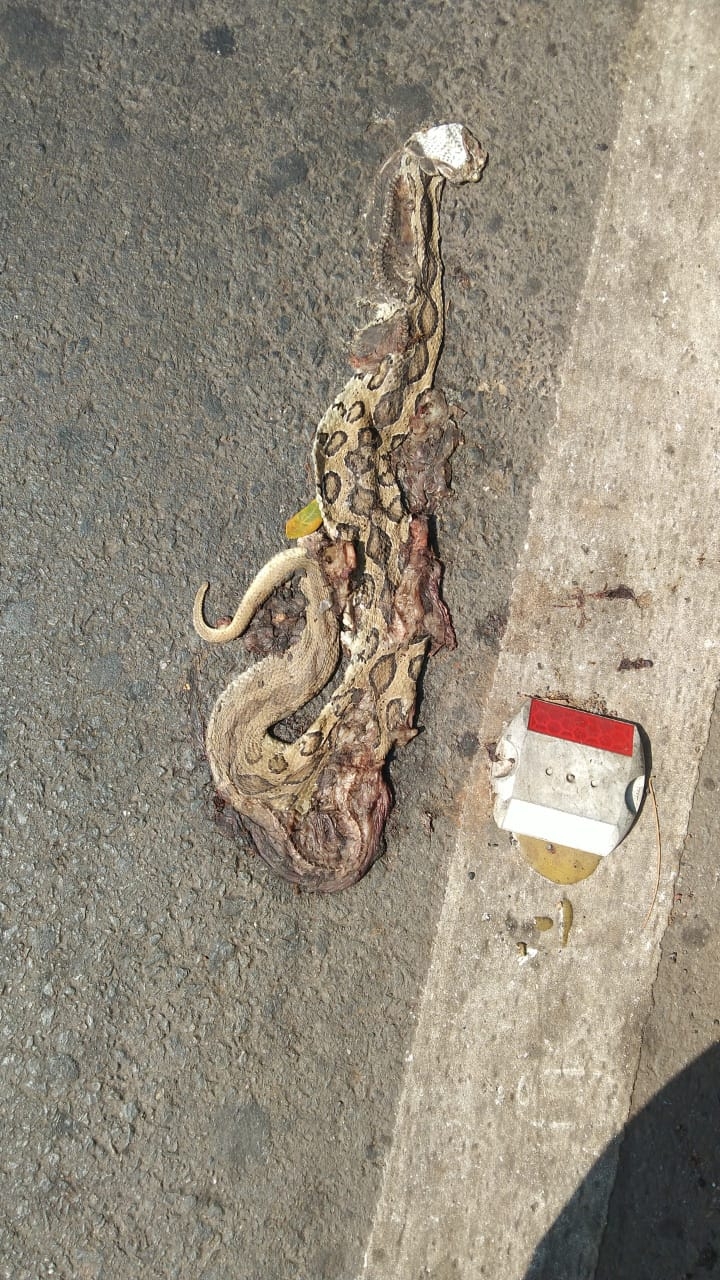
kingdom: Animalia
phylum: Chordata
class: Squamata
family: Viperidae
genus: Daboia
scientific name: Daboia russelii
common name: Western russel’s viper
